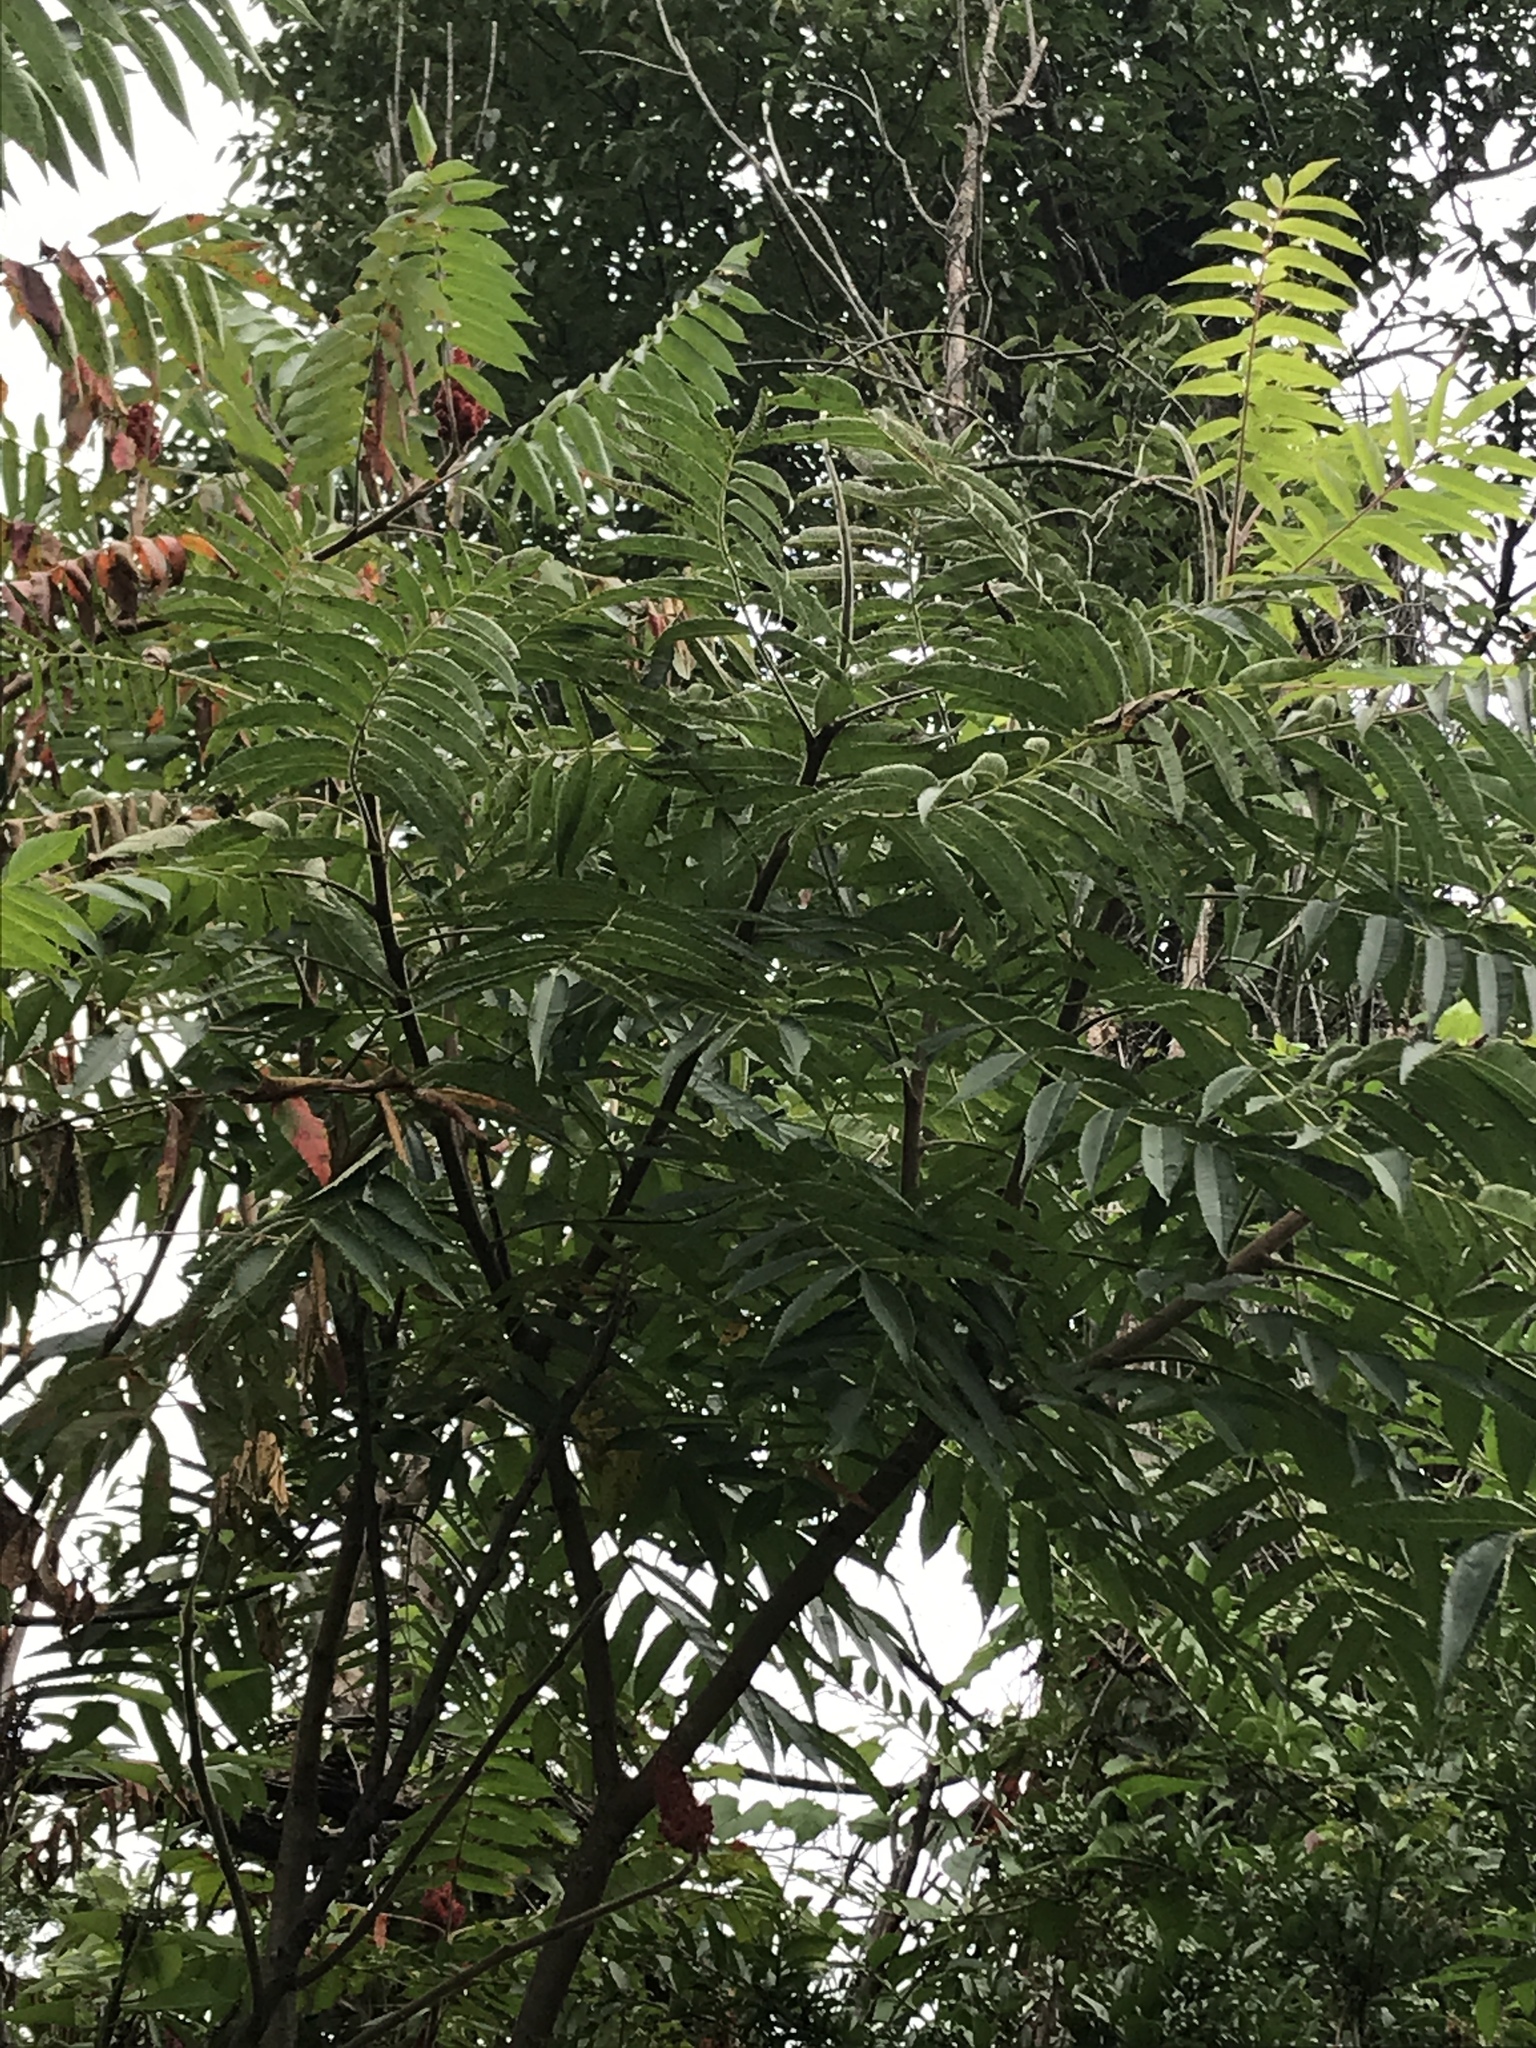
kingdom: Plantae
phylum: Tracheophyta
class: Magnoliopsida
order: Sapindales
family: Anacardiaceae
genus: Rhus
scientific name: Rhus typhina
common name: Staghorn sumac
